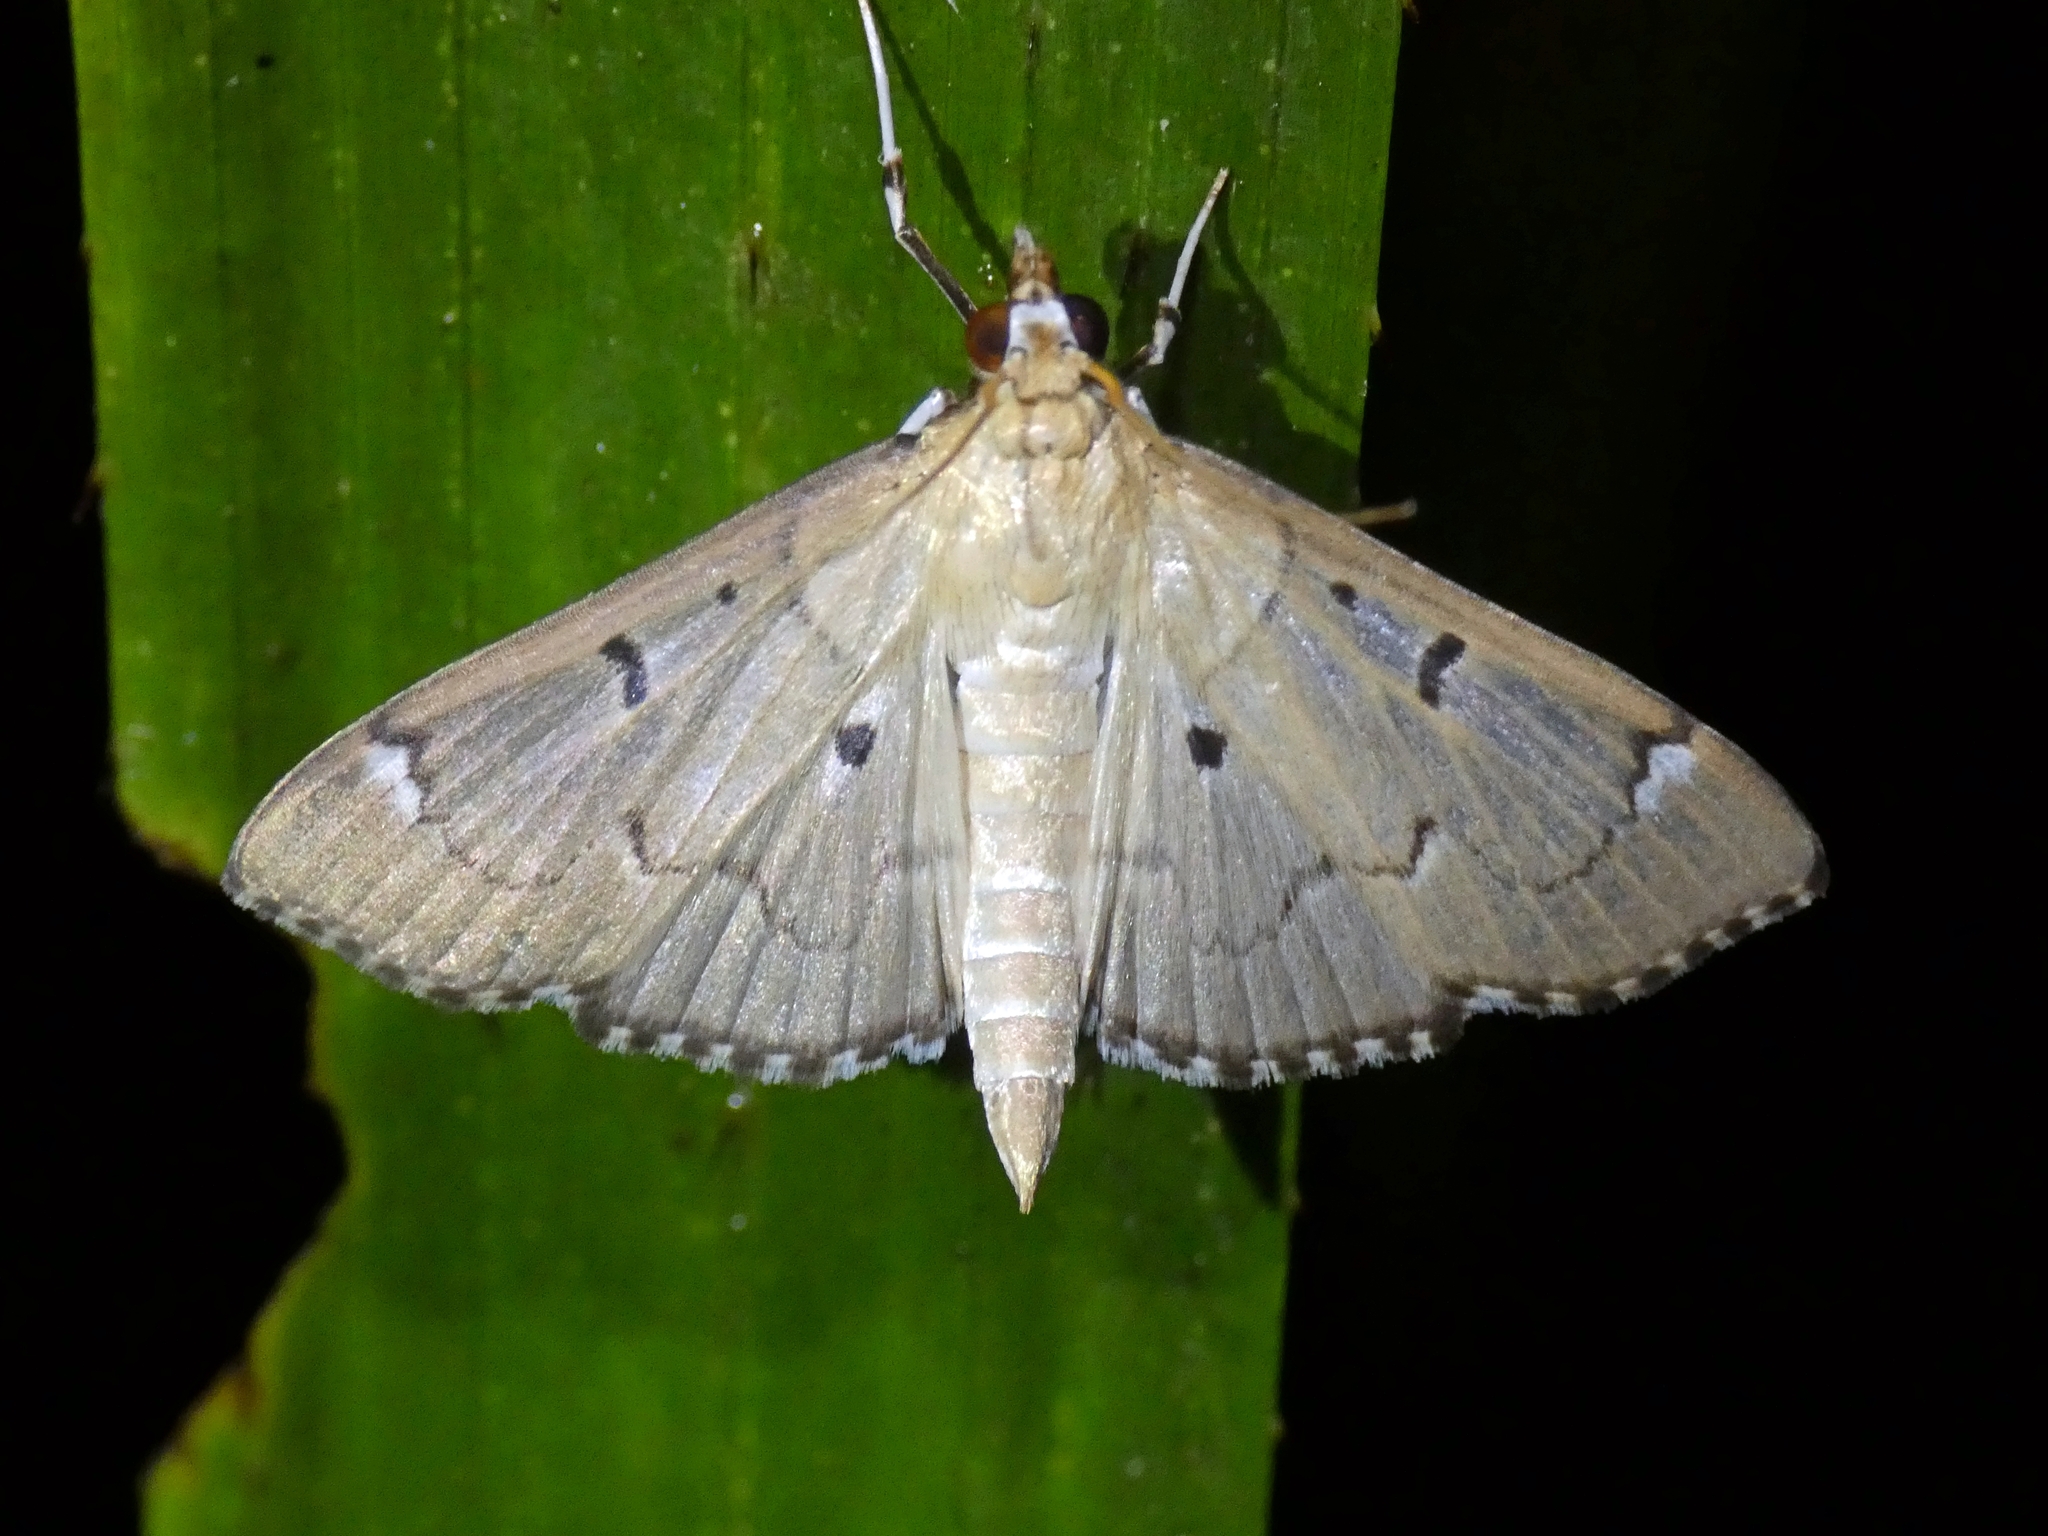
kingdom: Animalia
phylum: Arthropoda
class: Insecta
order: Lepidoptera
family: Crambidae
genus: Protonoceras
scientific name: Protonoceras eucosma
